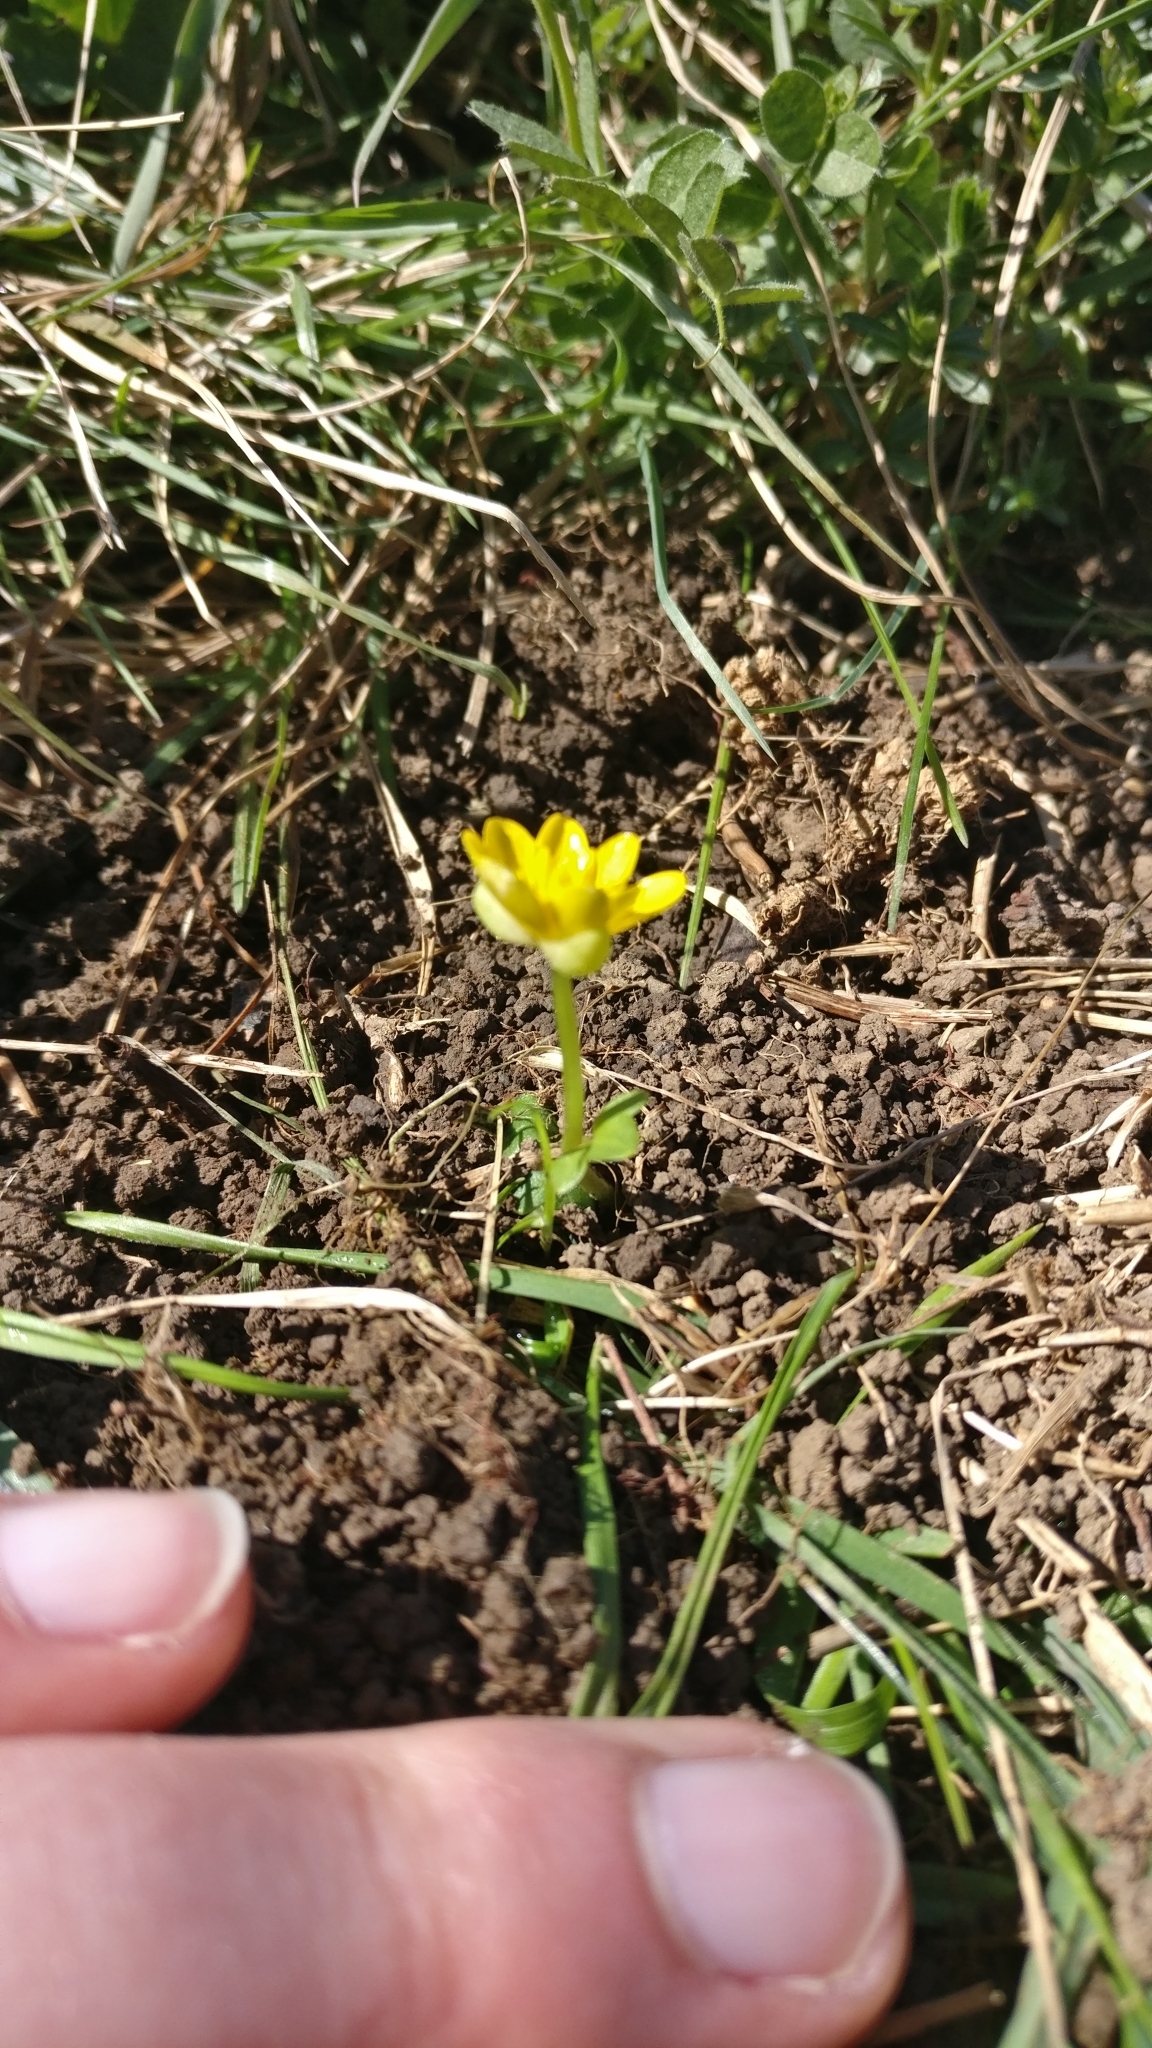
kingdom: Plantae
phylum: Tracheophyta
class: Magnoliopsida
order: Ranunculales
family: Ranunculaceae
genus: Ficaria
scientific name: Ficaria verna
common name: Lesser celandine
